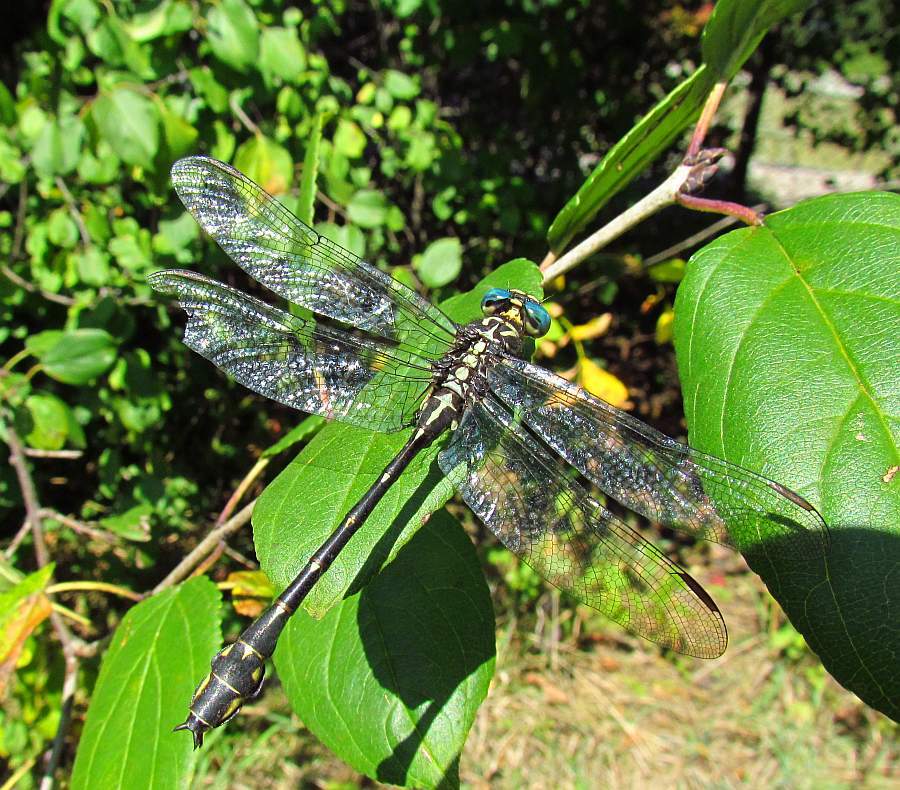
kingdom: Animalia
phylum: Arthropoda
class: Insecta
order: Odonata
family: Gomphidae
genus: Stylurus
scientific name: Stylurus notatus
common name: Elusive clubtail
